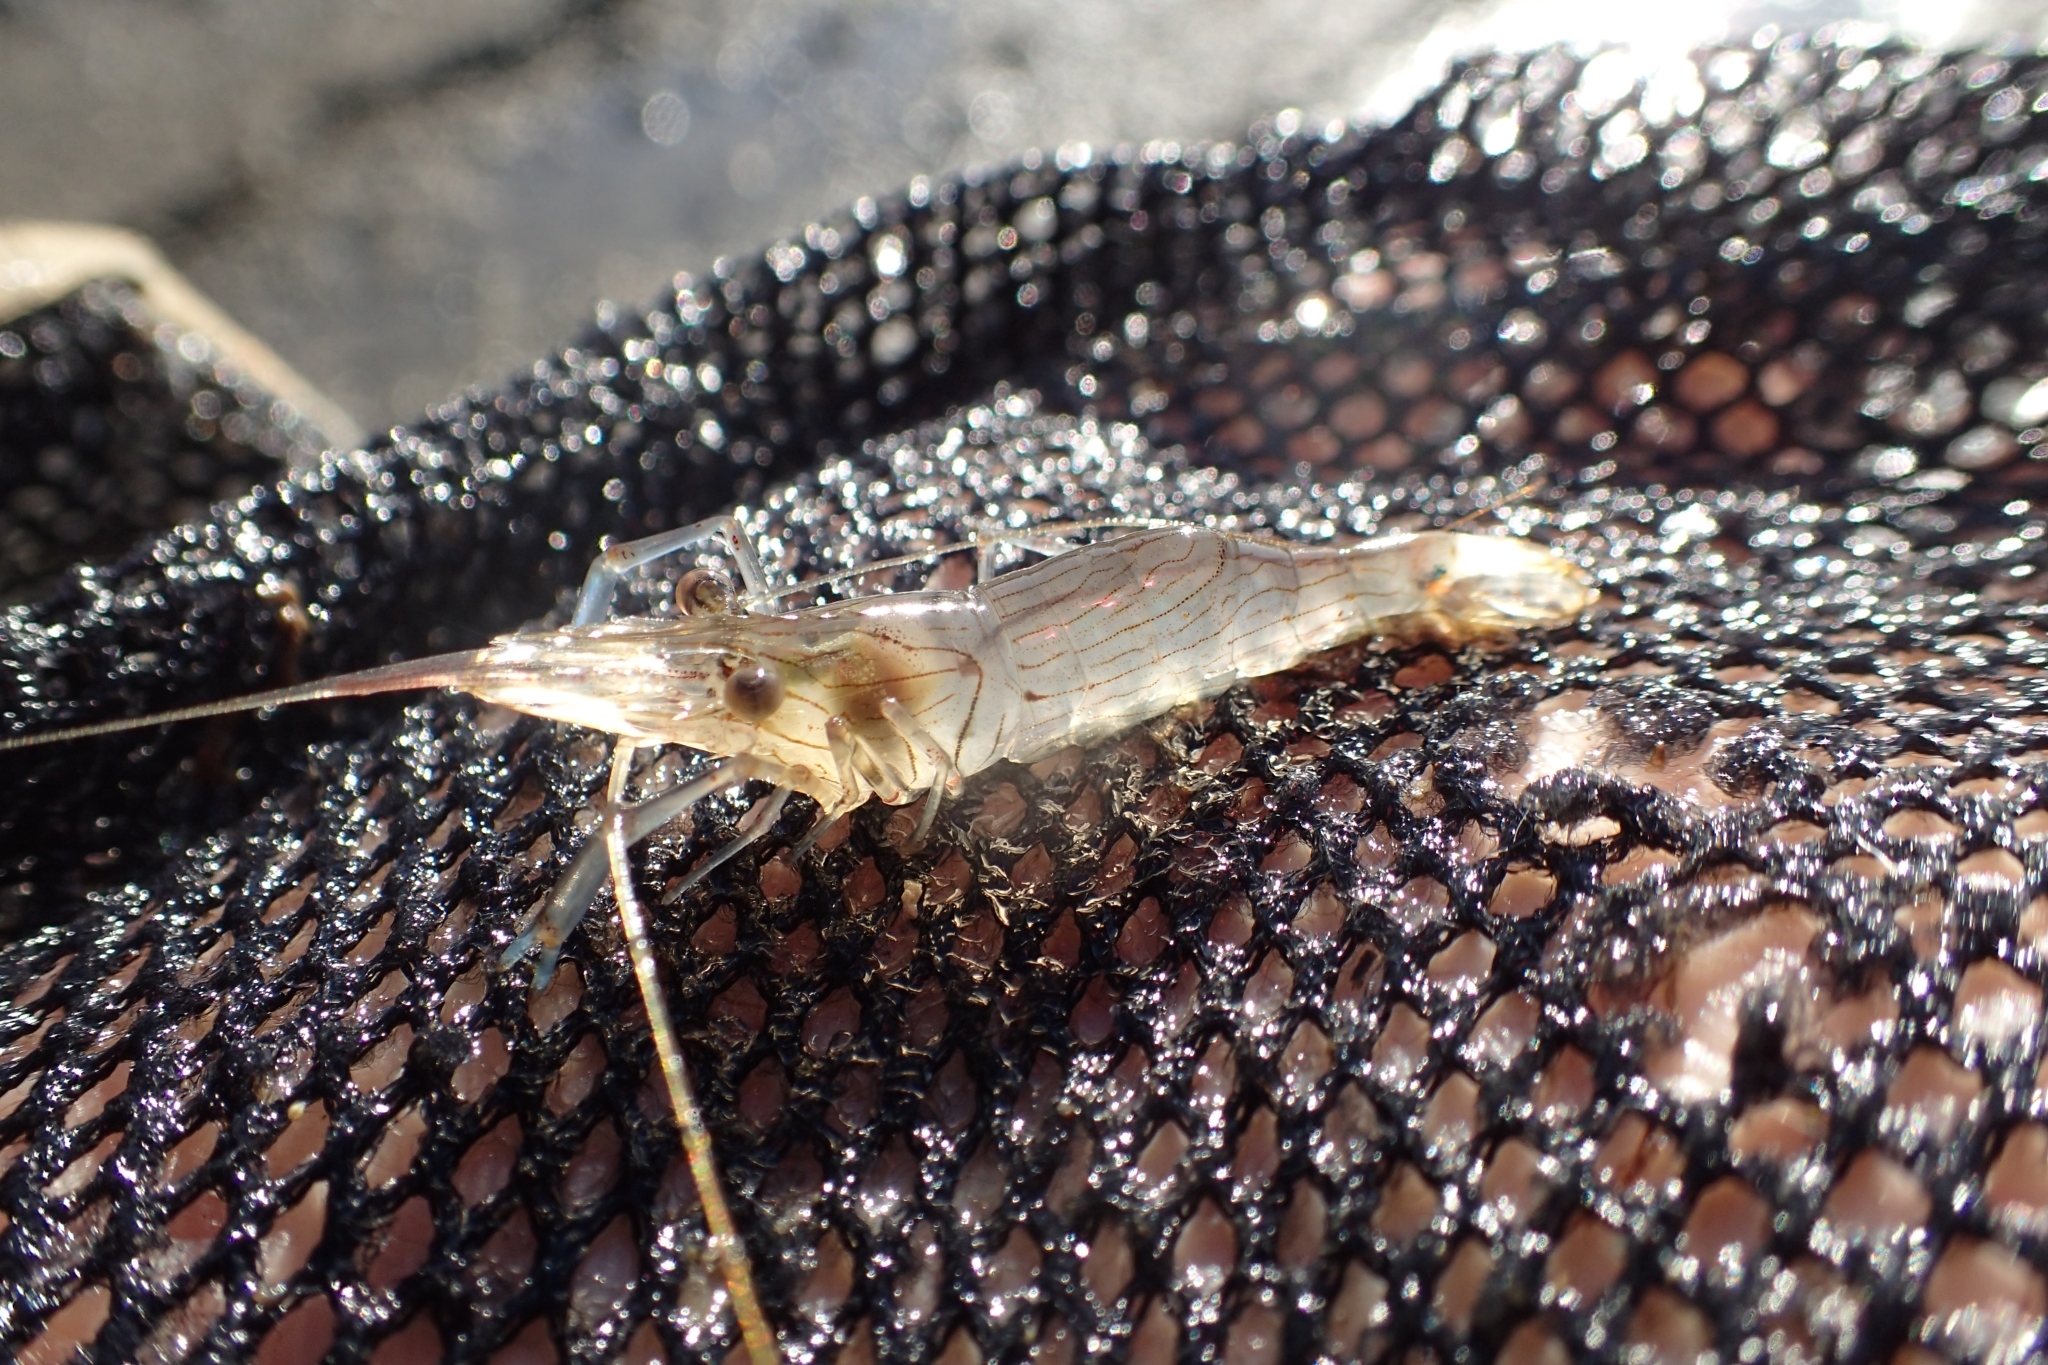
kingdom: Animalia
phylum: Arthropoda
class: Malacostraca
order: Decapoda
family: Palaemonidae
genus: Palaemon
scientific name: Palaemon affinis
